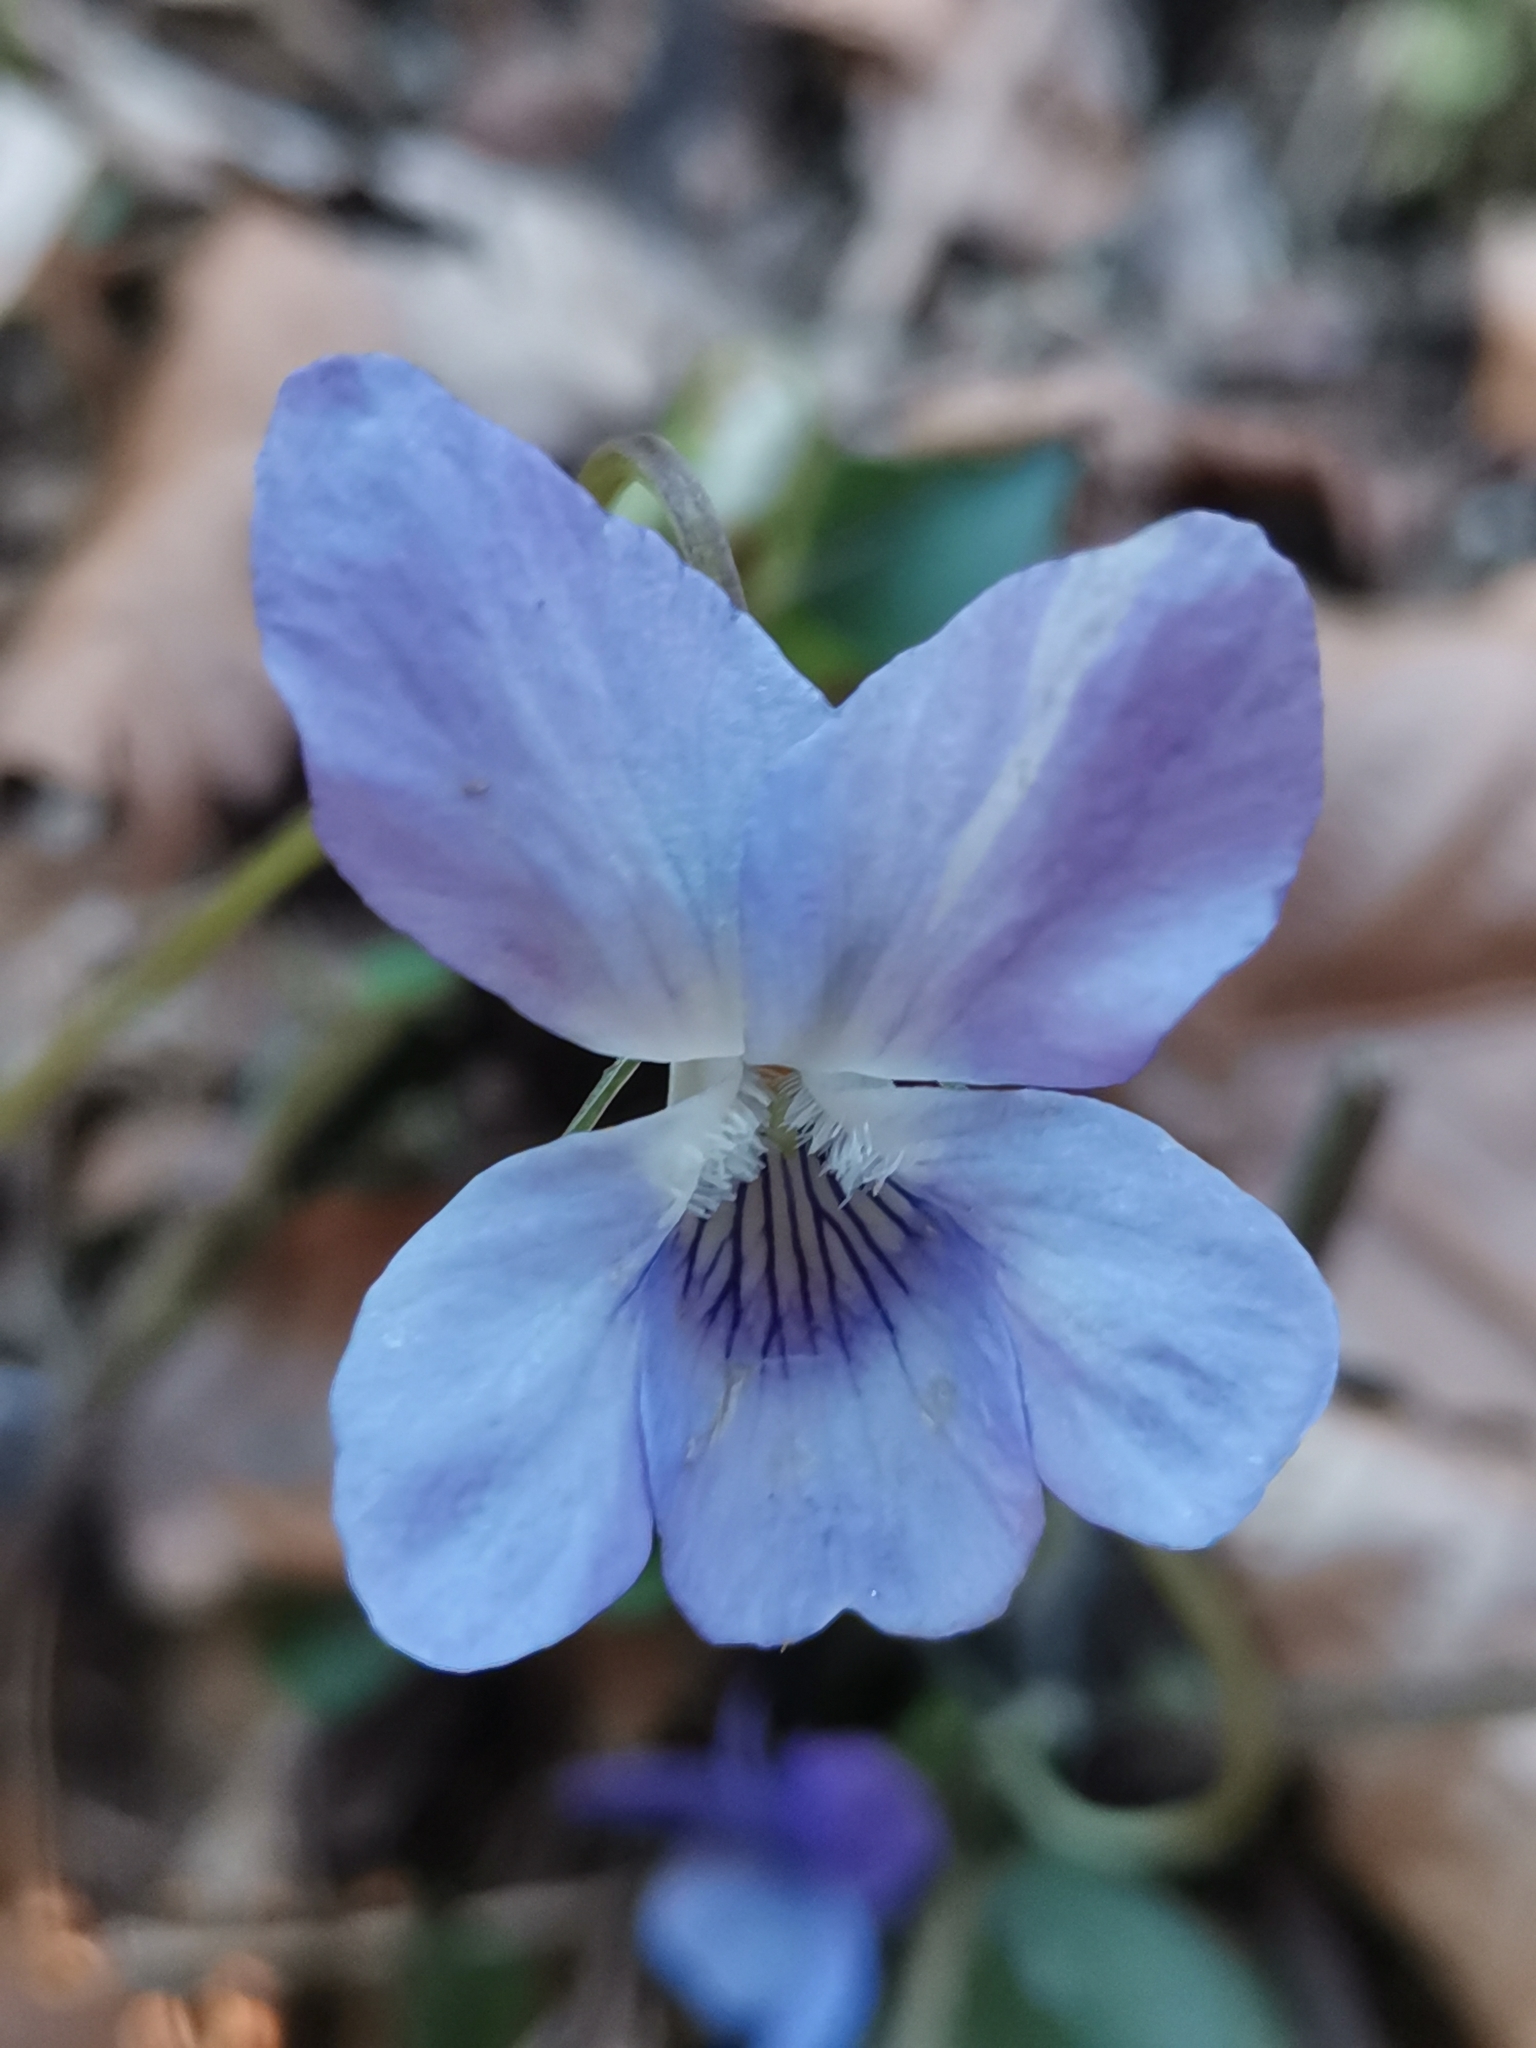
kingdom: Plantae
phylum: Tracheophyta
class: Magnoliopsida
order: Malpighiales
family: Violaceae
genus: Viola
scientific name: Viola riviniana
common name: Common dog-violet
